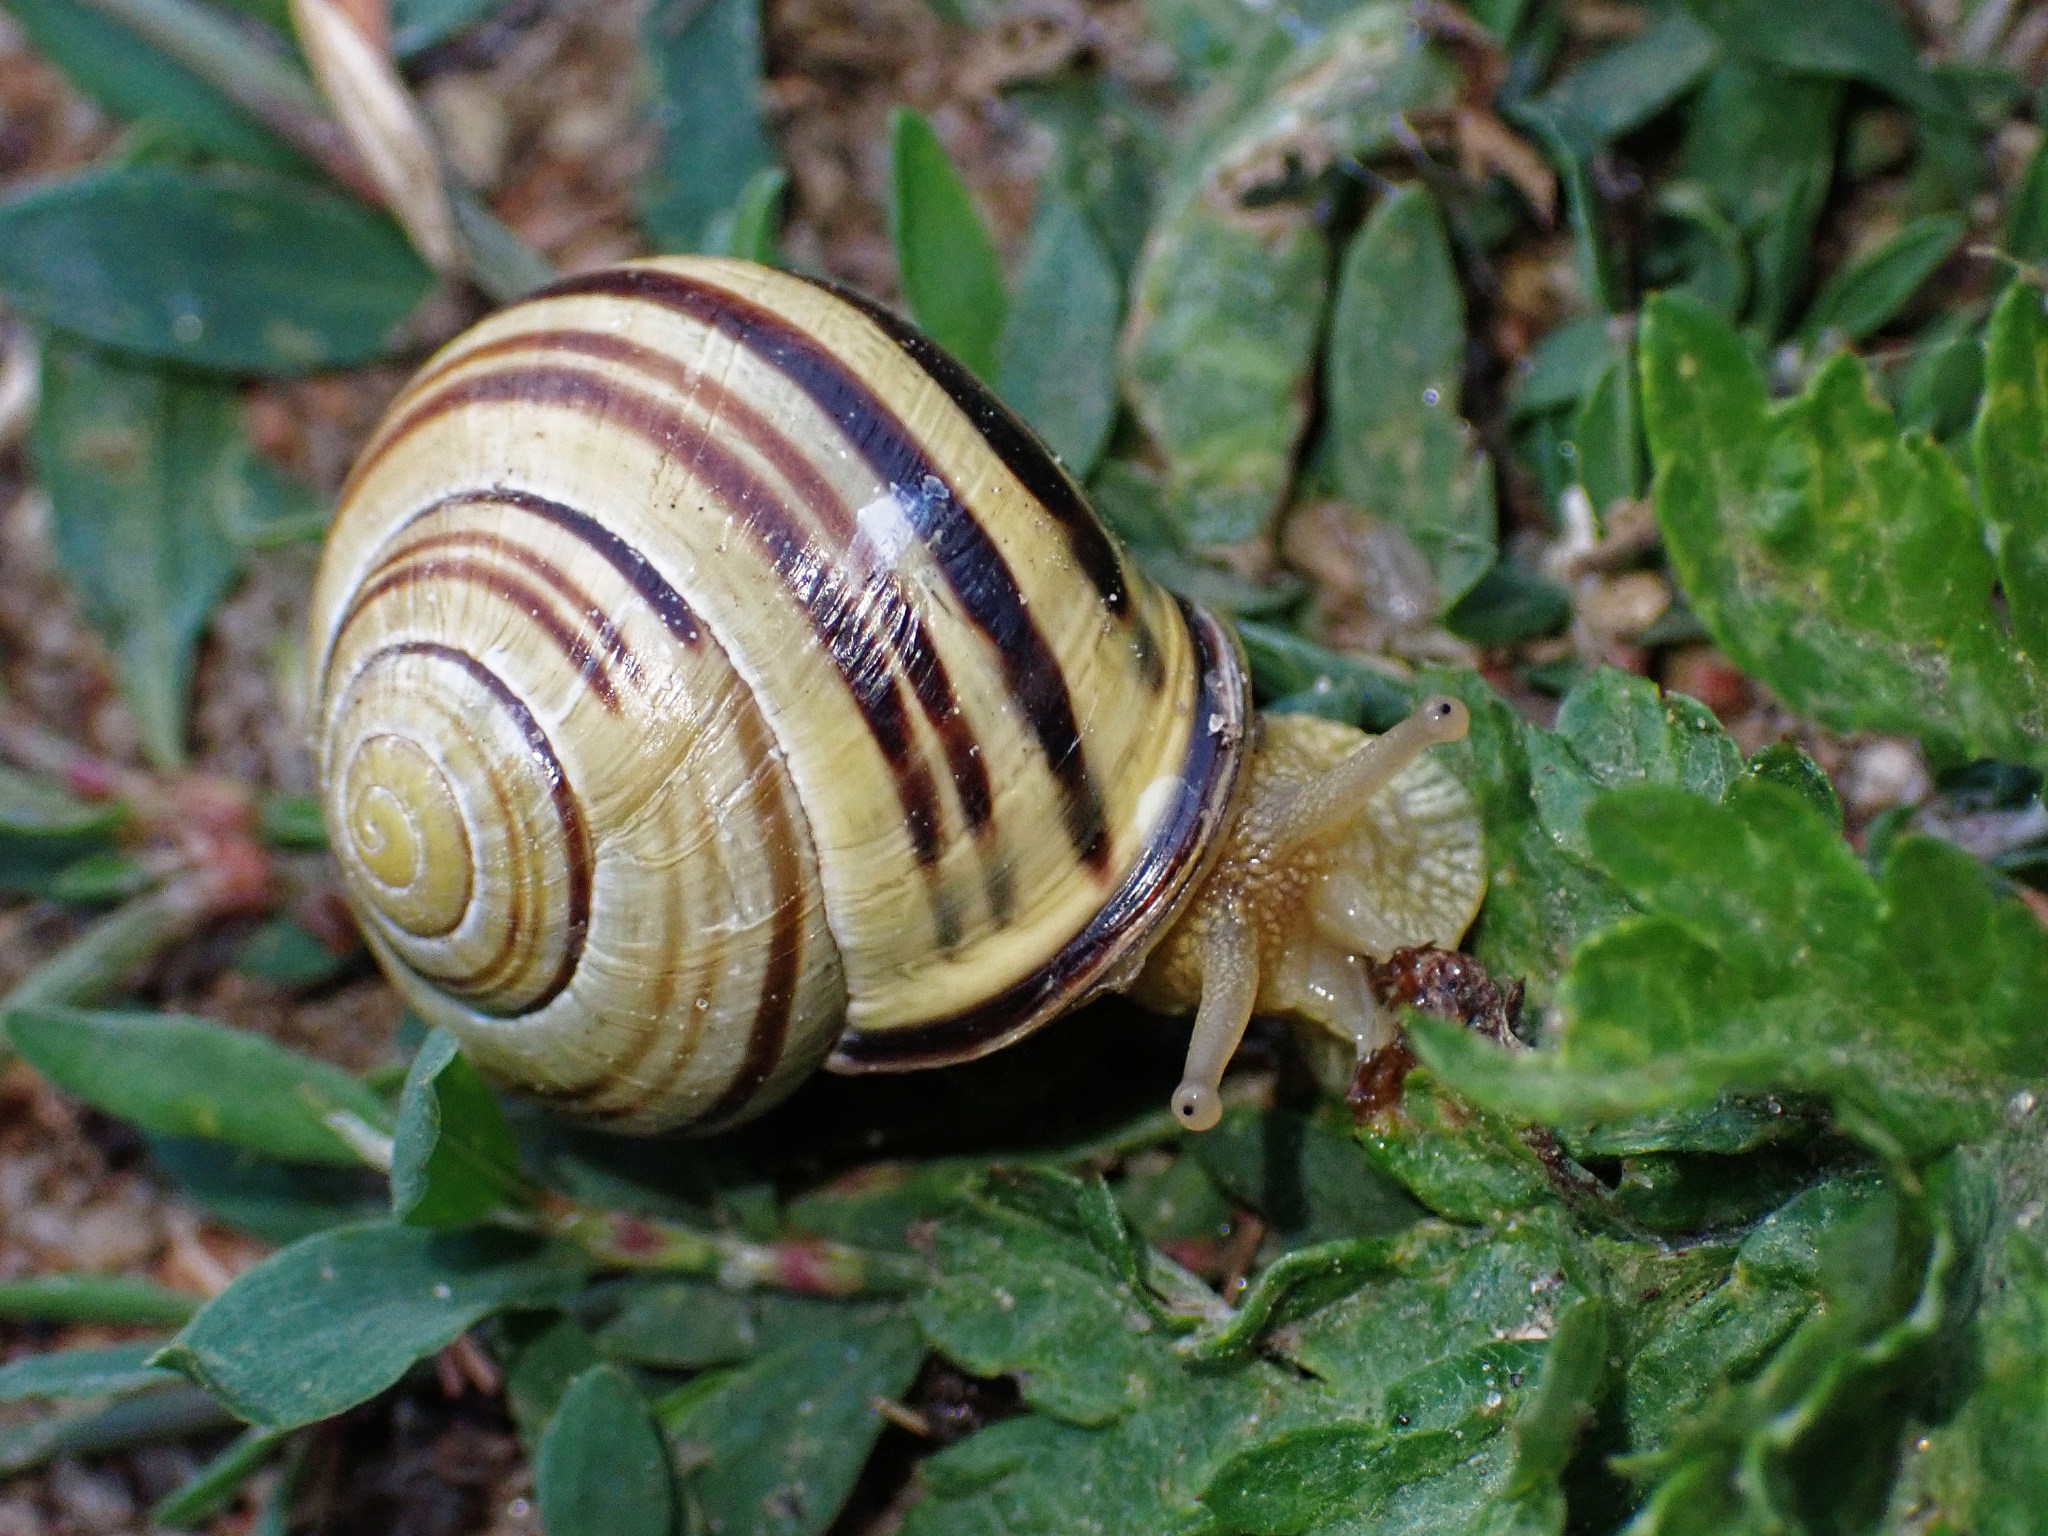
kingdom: Animalia
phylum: Mollusca
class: Gastropoda
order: Stylommatophora
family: Helicidae
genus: Cepaea
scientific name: Cepaea nemoralis
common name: Grovesnail
